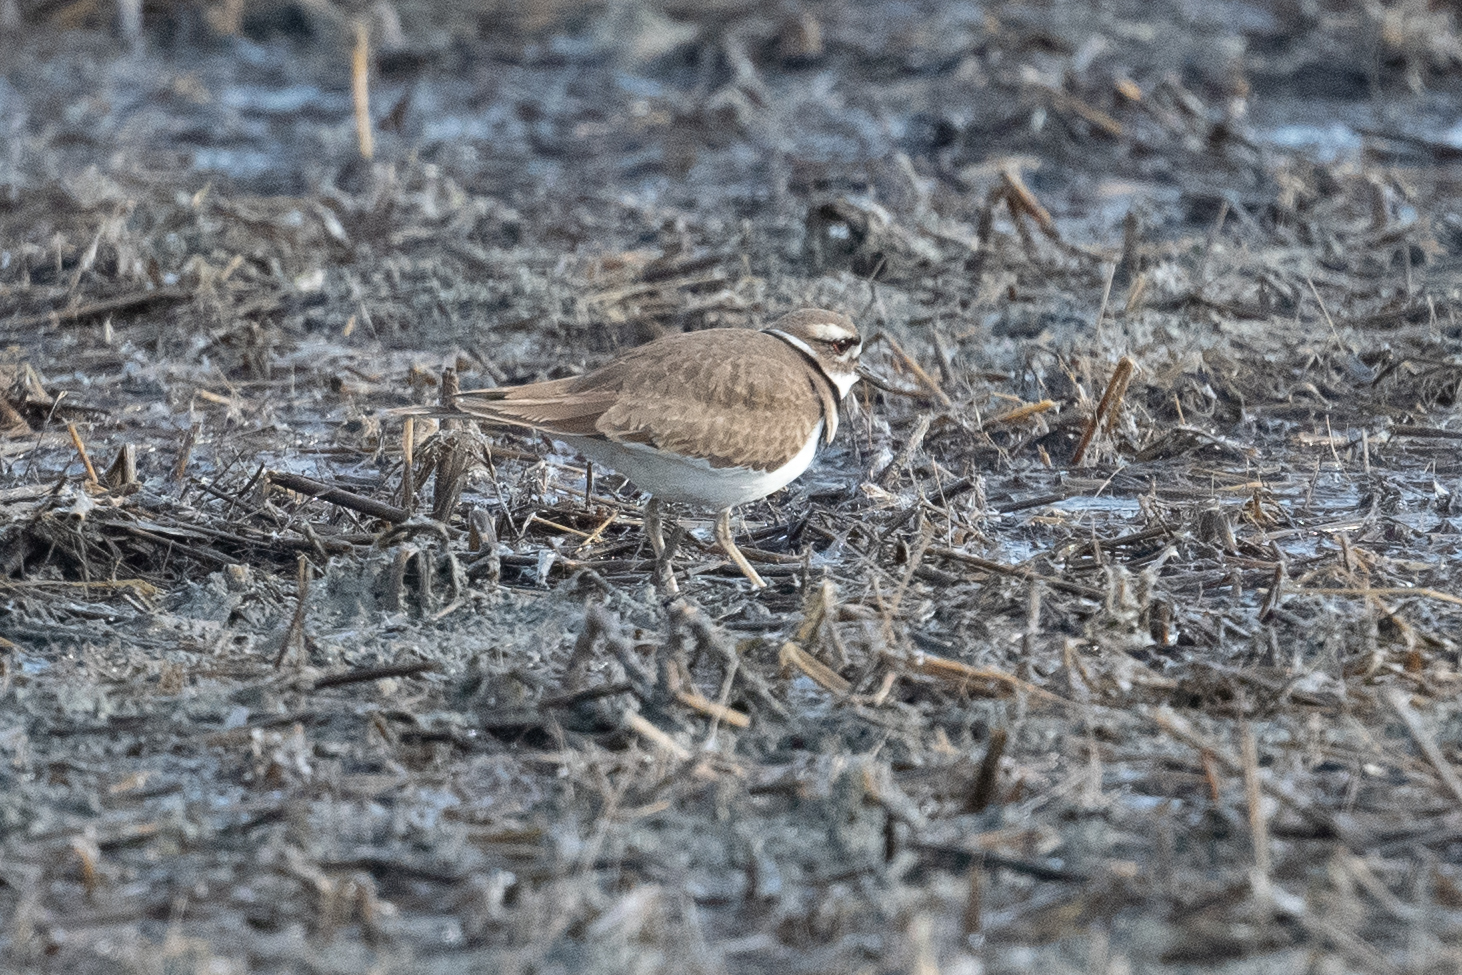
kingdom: Animalia
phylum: Chordata
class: Aves
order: Charadriiformes
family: Charadriidae
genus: Charadrius
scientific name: Charadrius vociferus
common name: Killdeer
